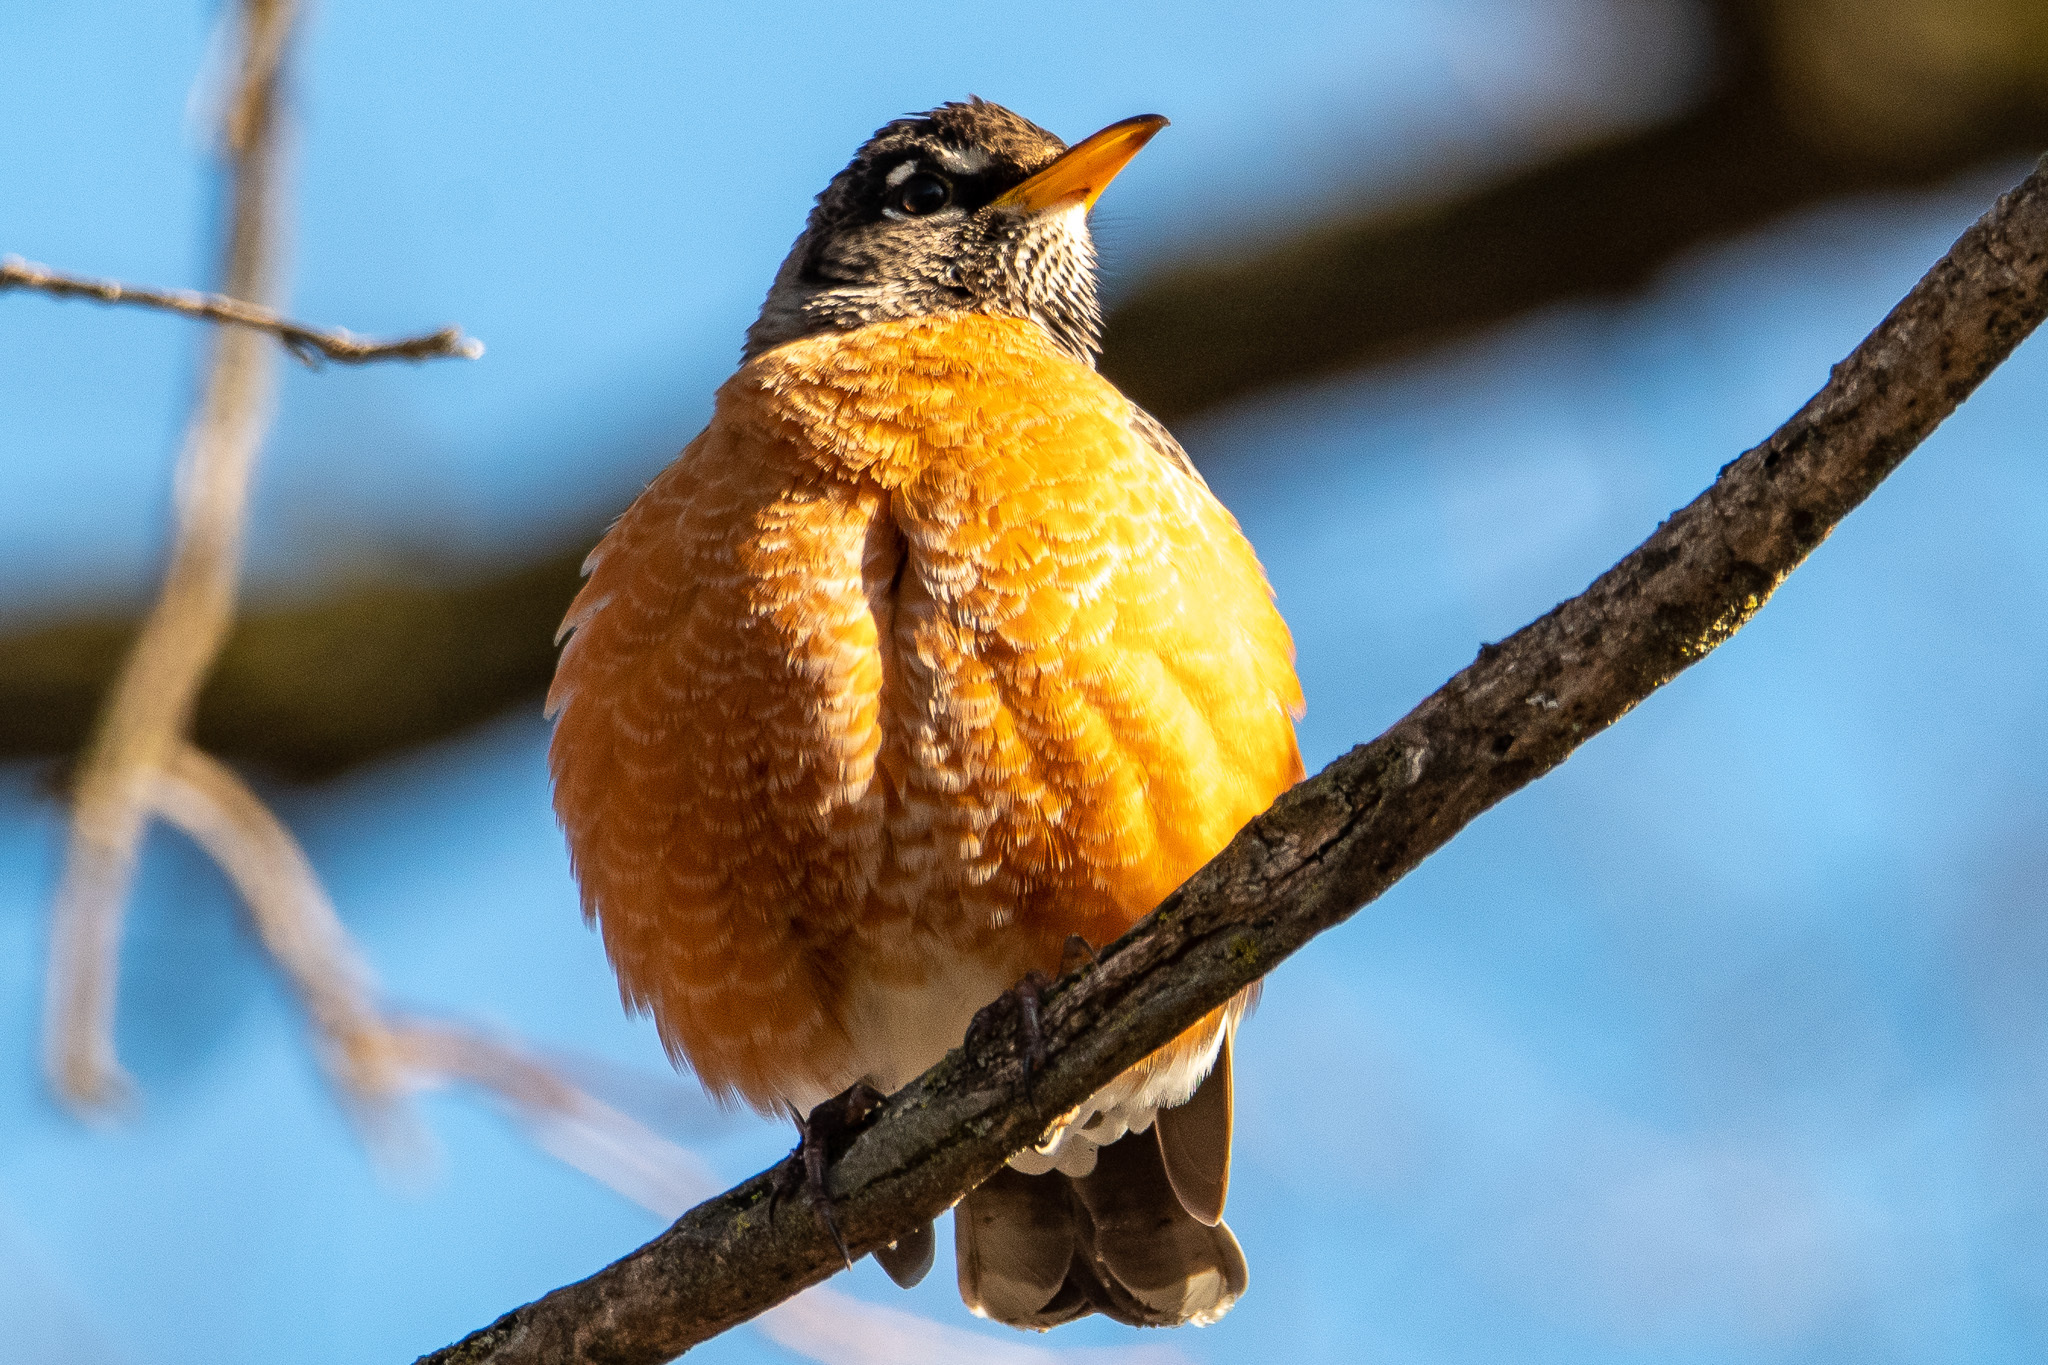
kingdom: Animalia
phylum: Chordata
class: Aves
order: Passeriformes
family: Turdidae
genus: Turdus
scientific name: Turdus migratorius
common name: American robin
